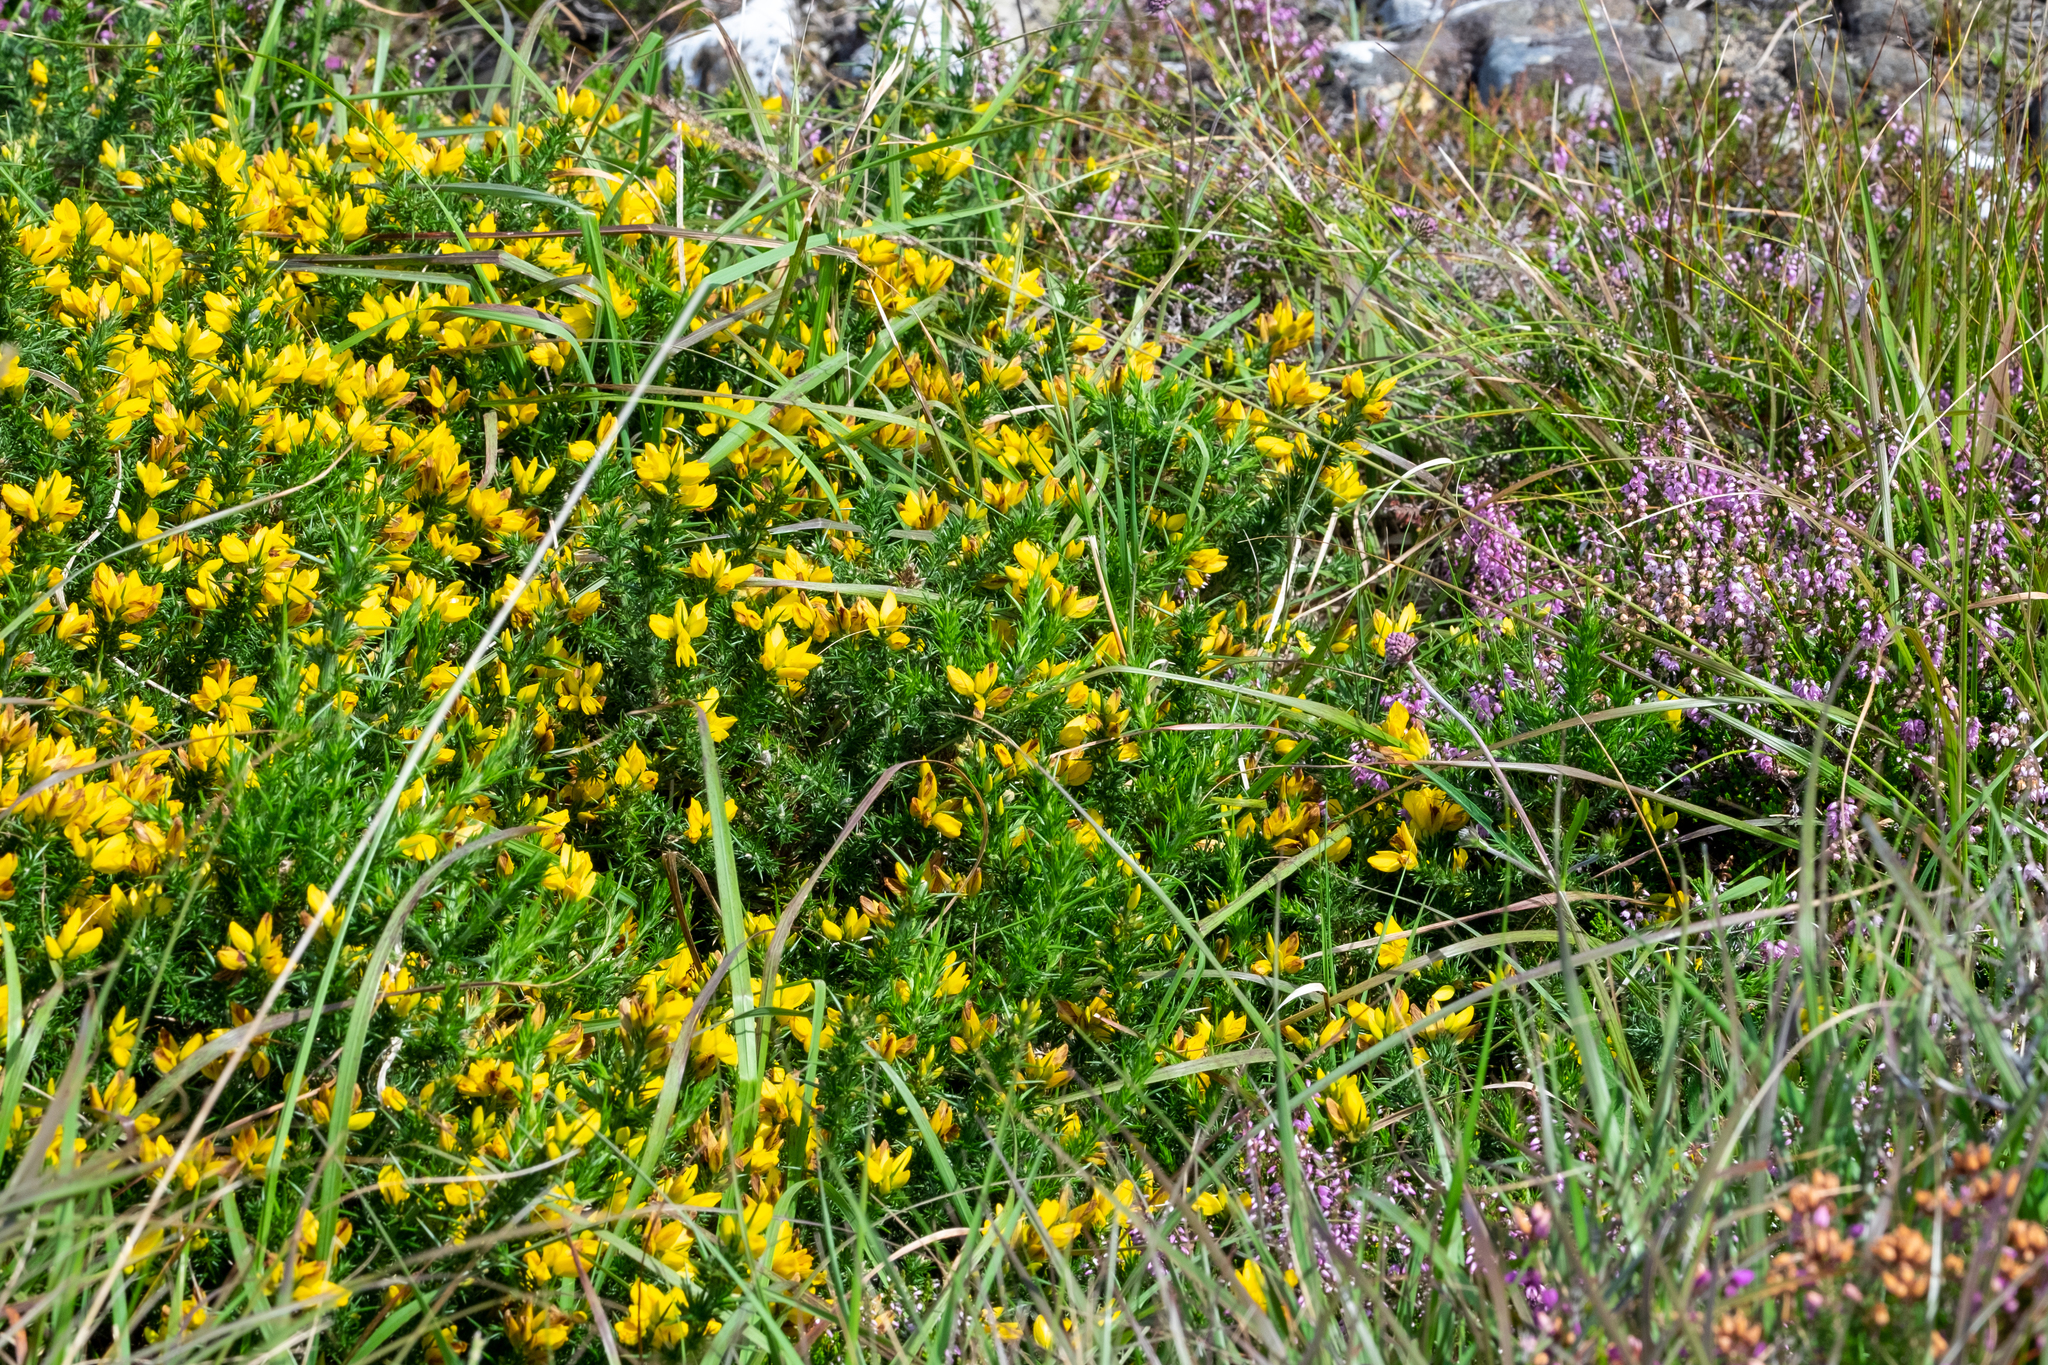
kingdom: Plantae
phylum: Tracheophyta
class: Magnoliopsida
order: Fabales
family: Fabaceae
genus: Ulex
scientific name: Ulex gallii
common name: Western gorse
